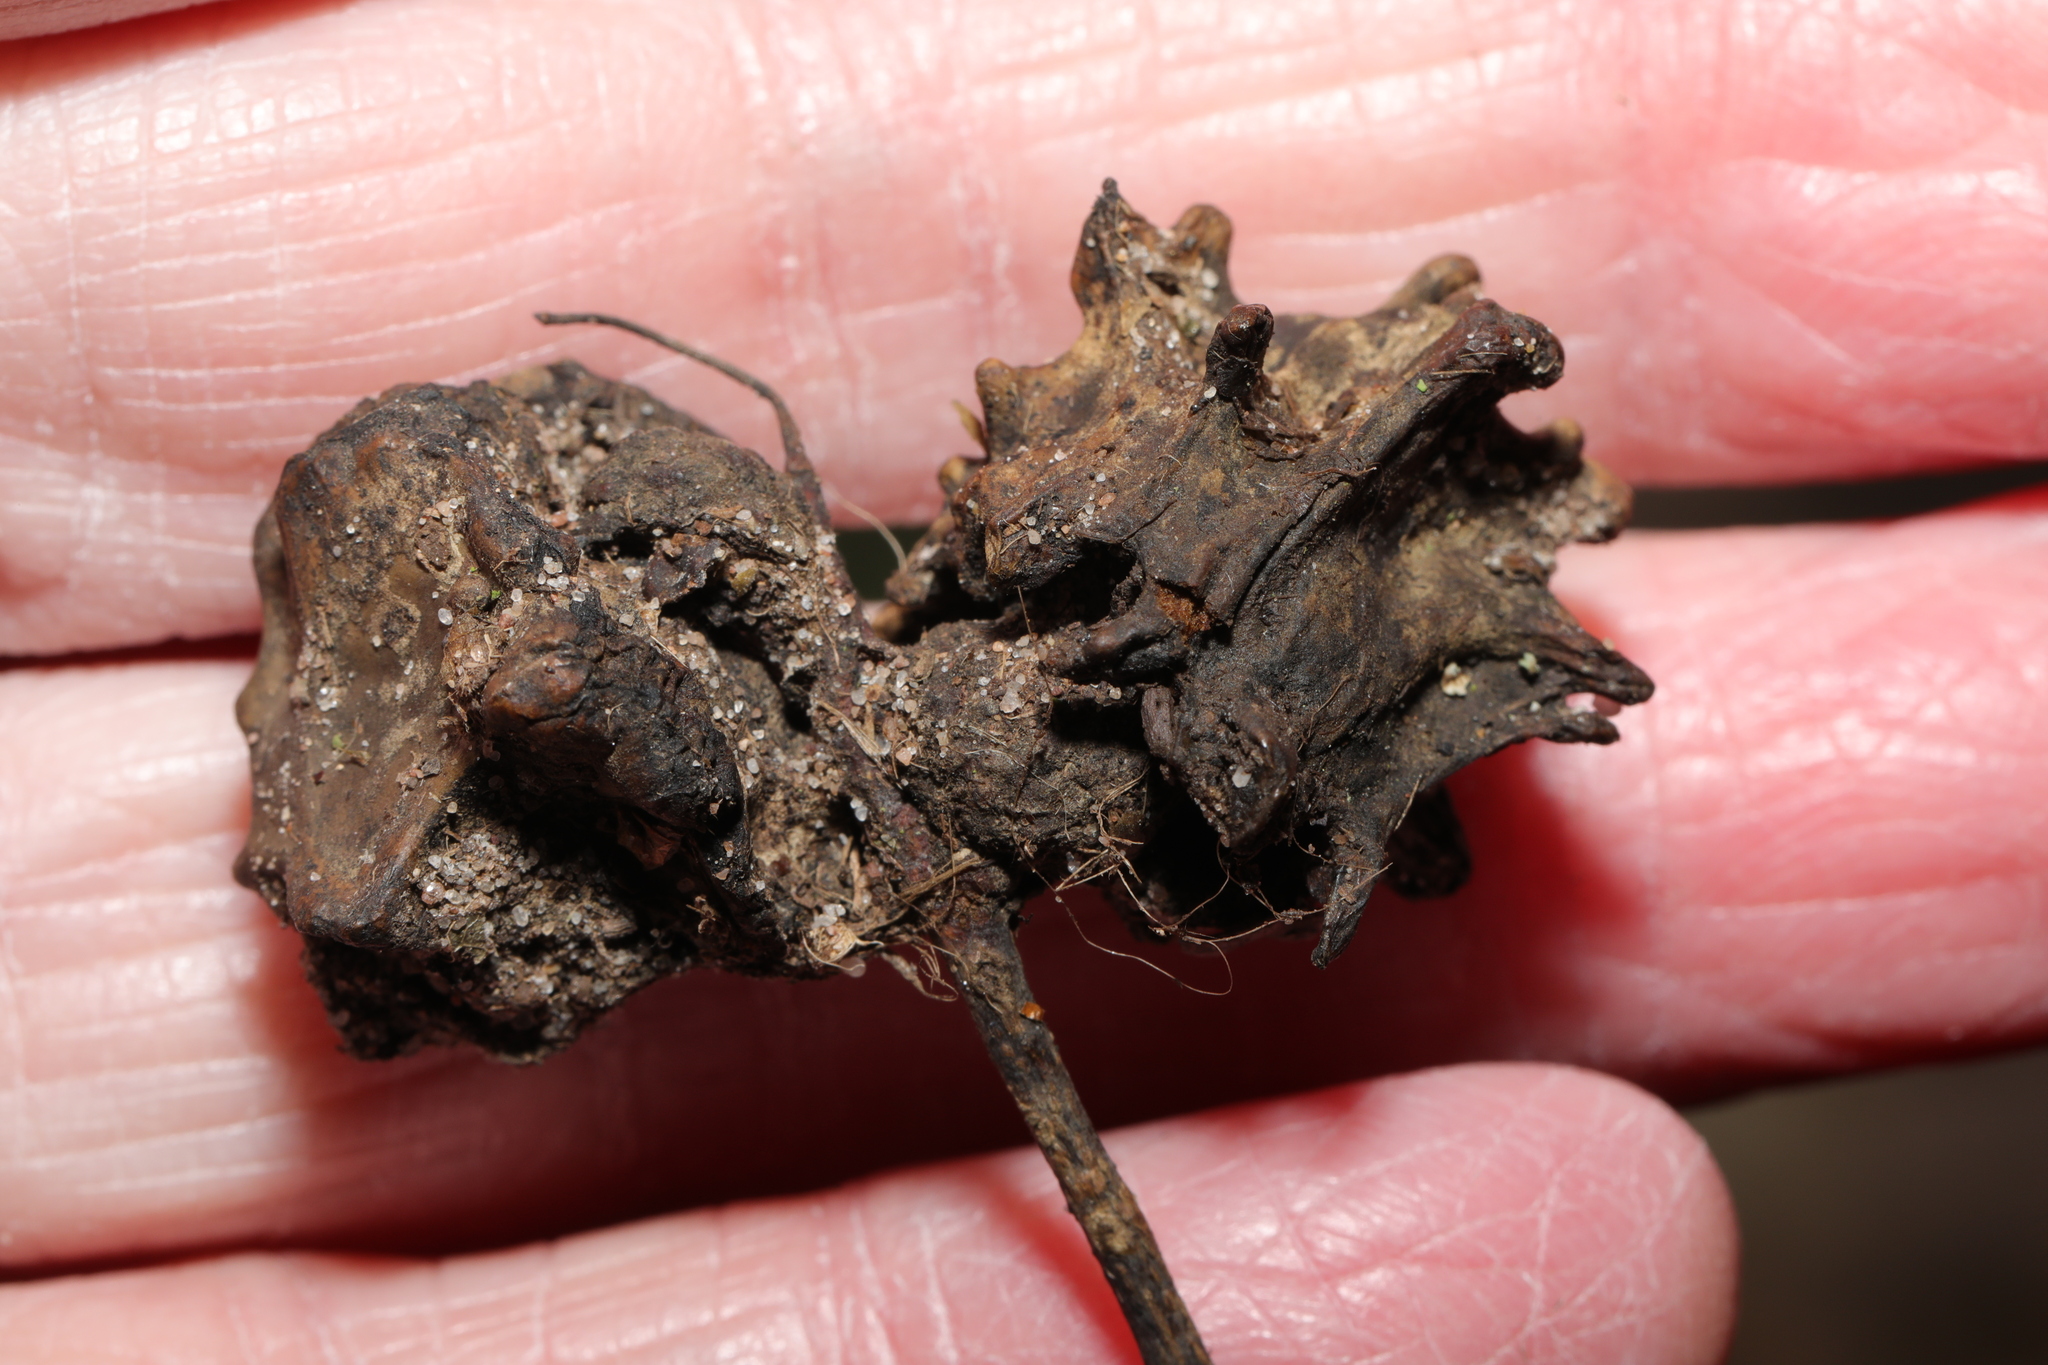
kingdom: Animalia
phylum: Arthropoda
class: Insecta
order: Hymenoptera
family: Cynipidae
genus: Andricus
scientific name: Andricus quercuscalicis
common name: Knopper gall
